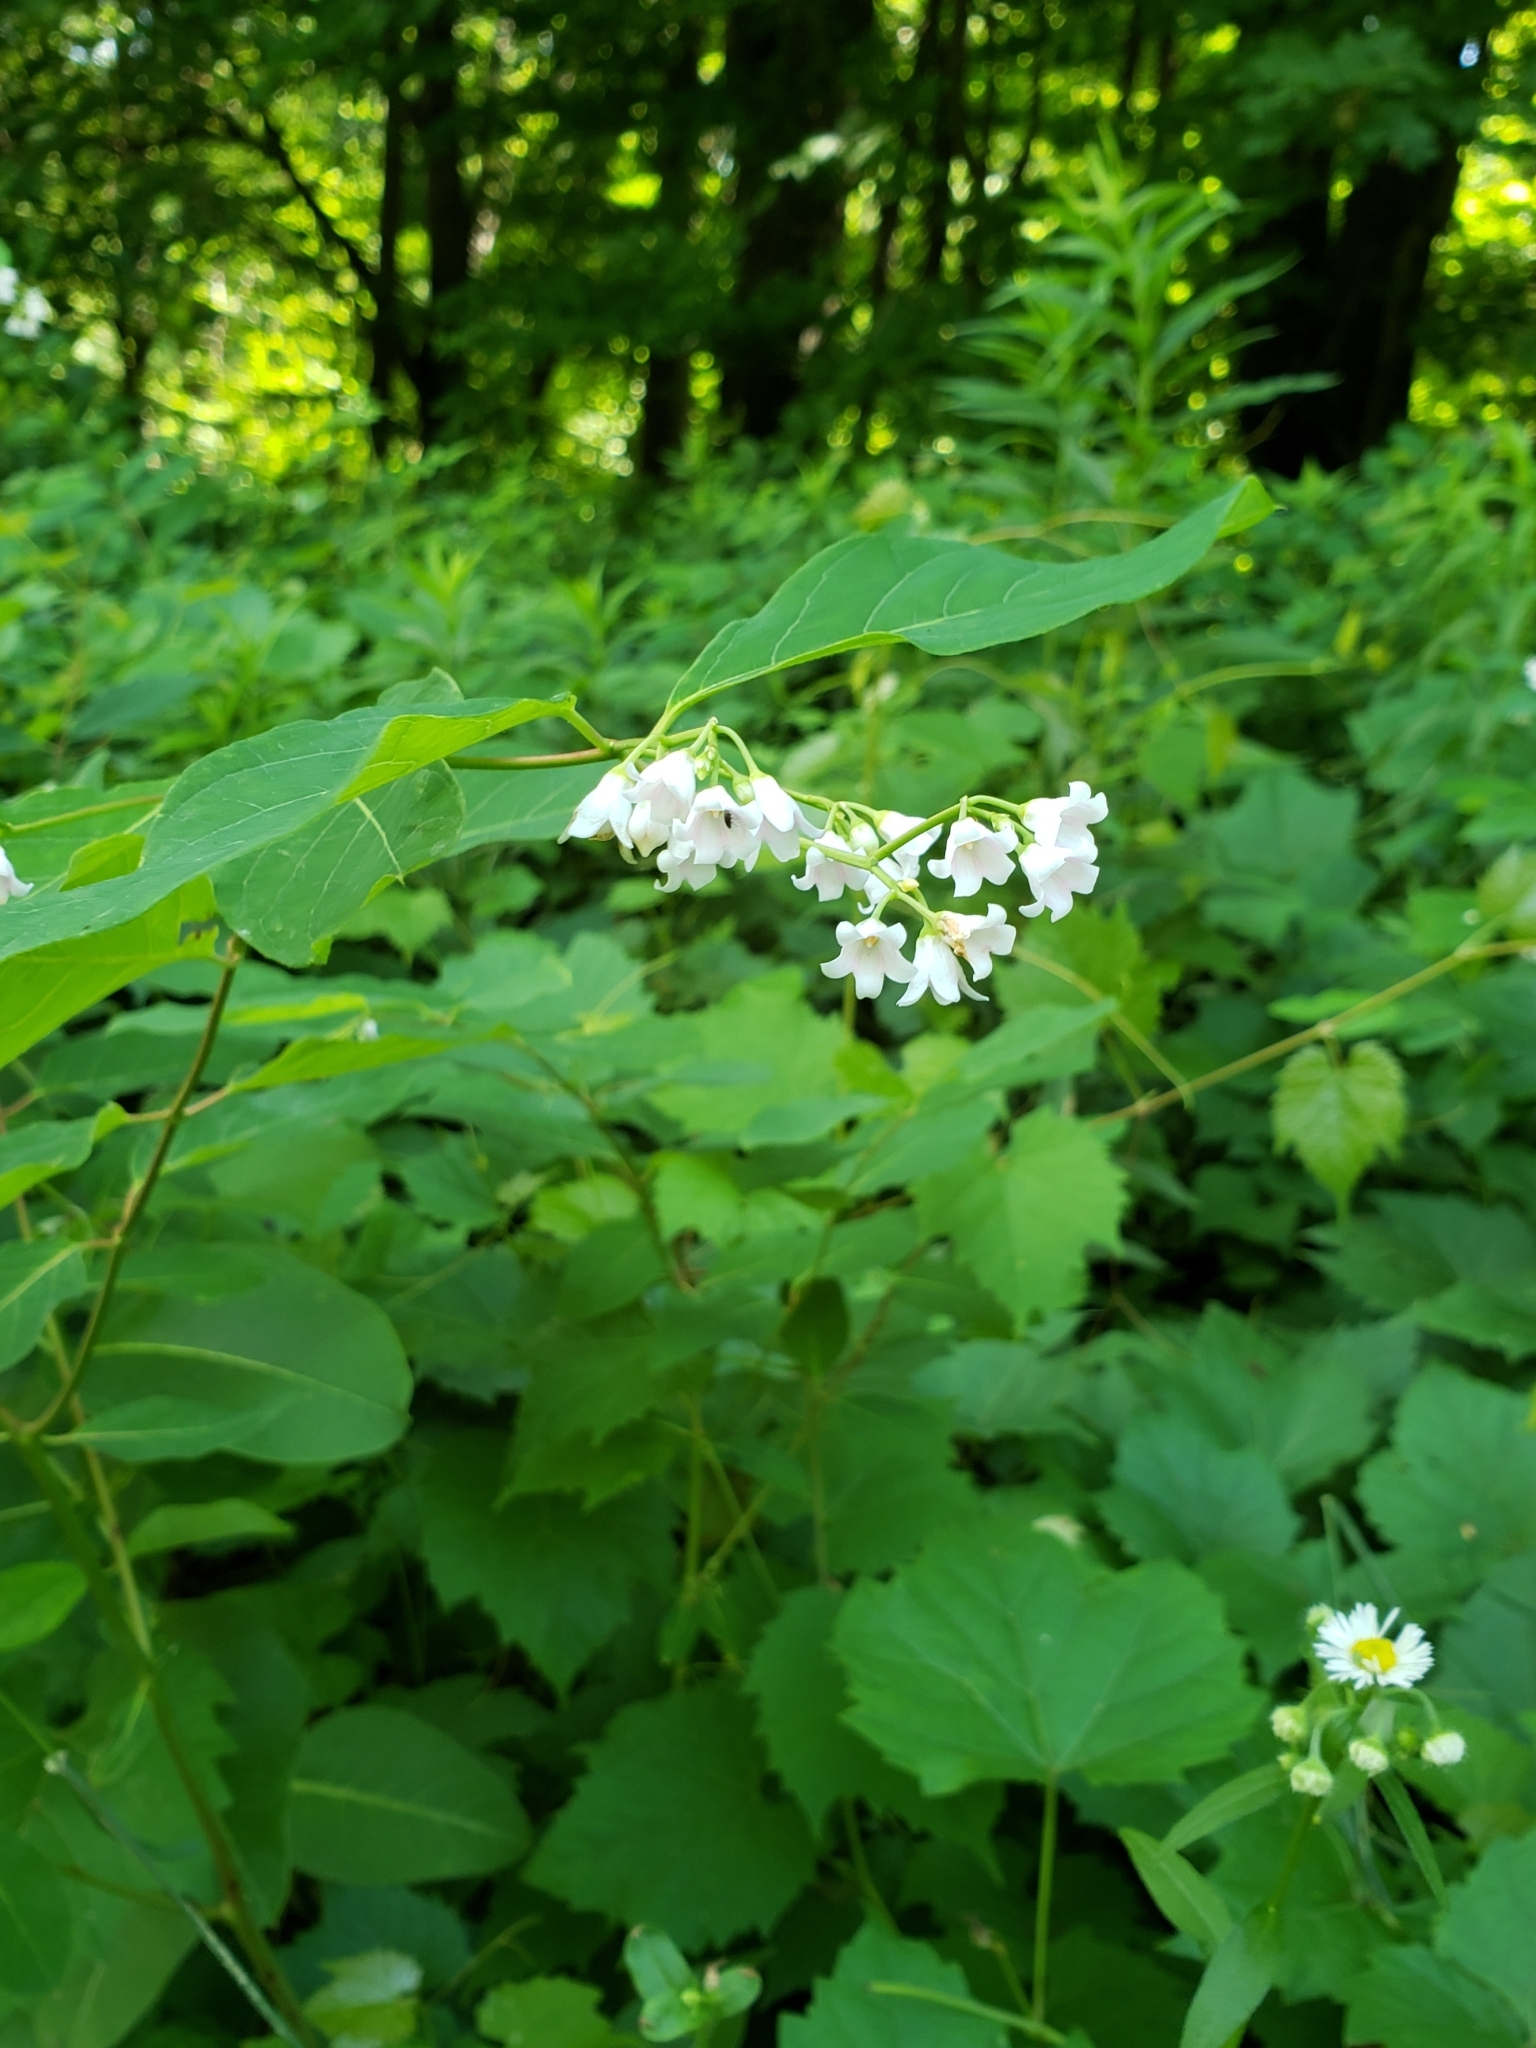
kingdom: Plantae
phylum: Tracheophyta
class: Magnoliopsida
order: Gentianales
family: Apocynaceae
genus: Apocynum
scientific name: Apocynum androsaemifolium
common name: Spreading dogbane
